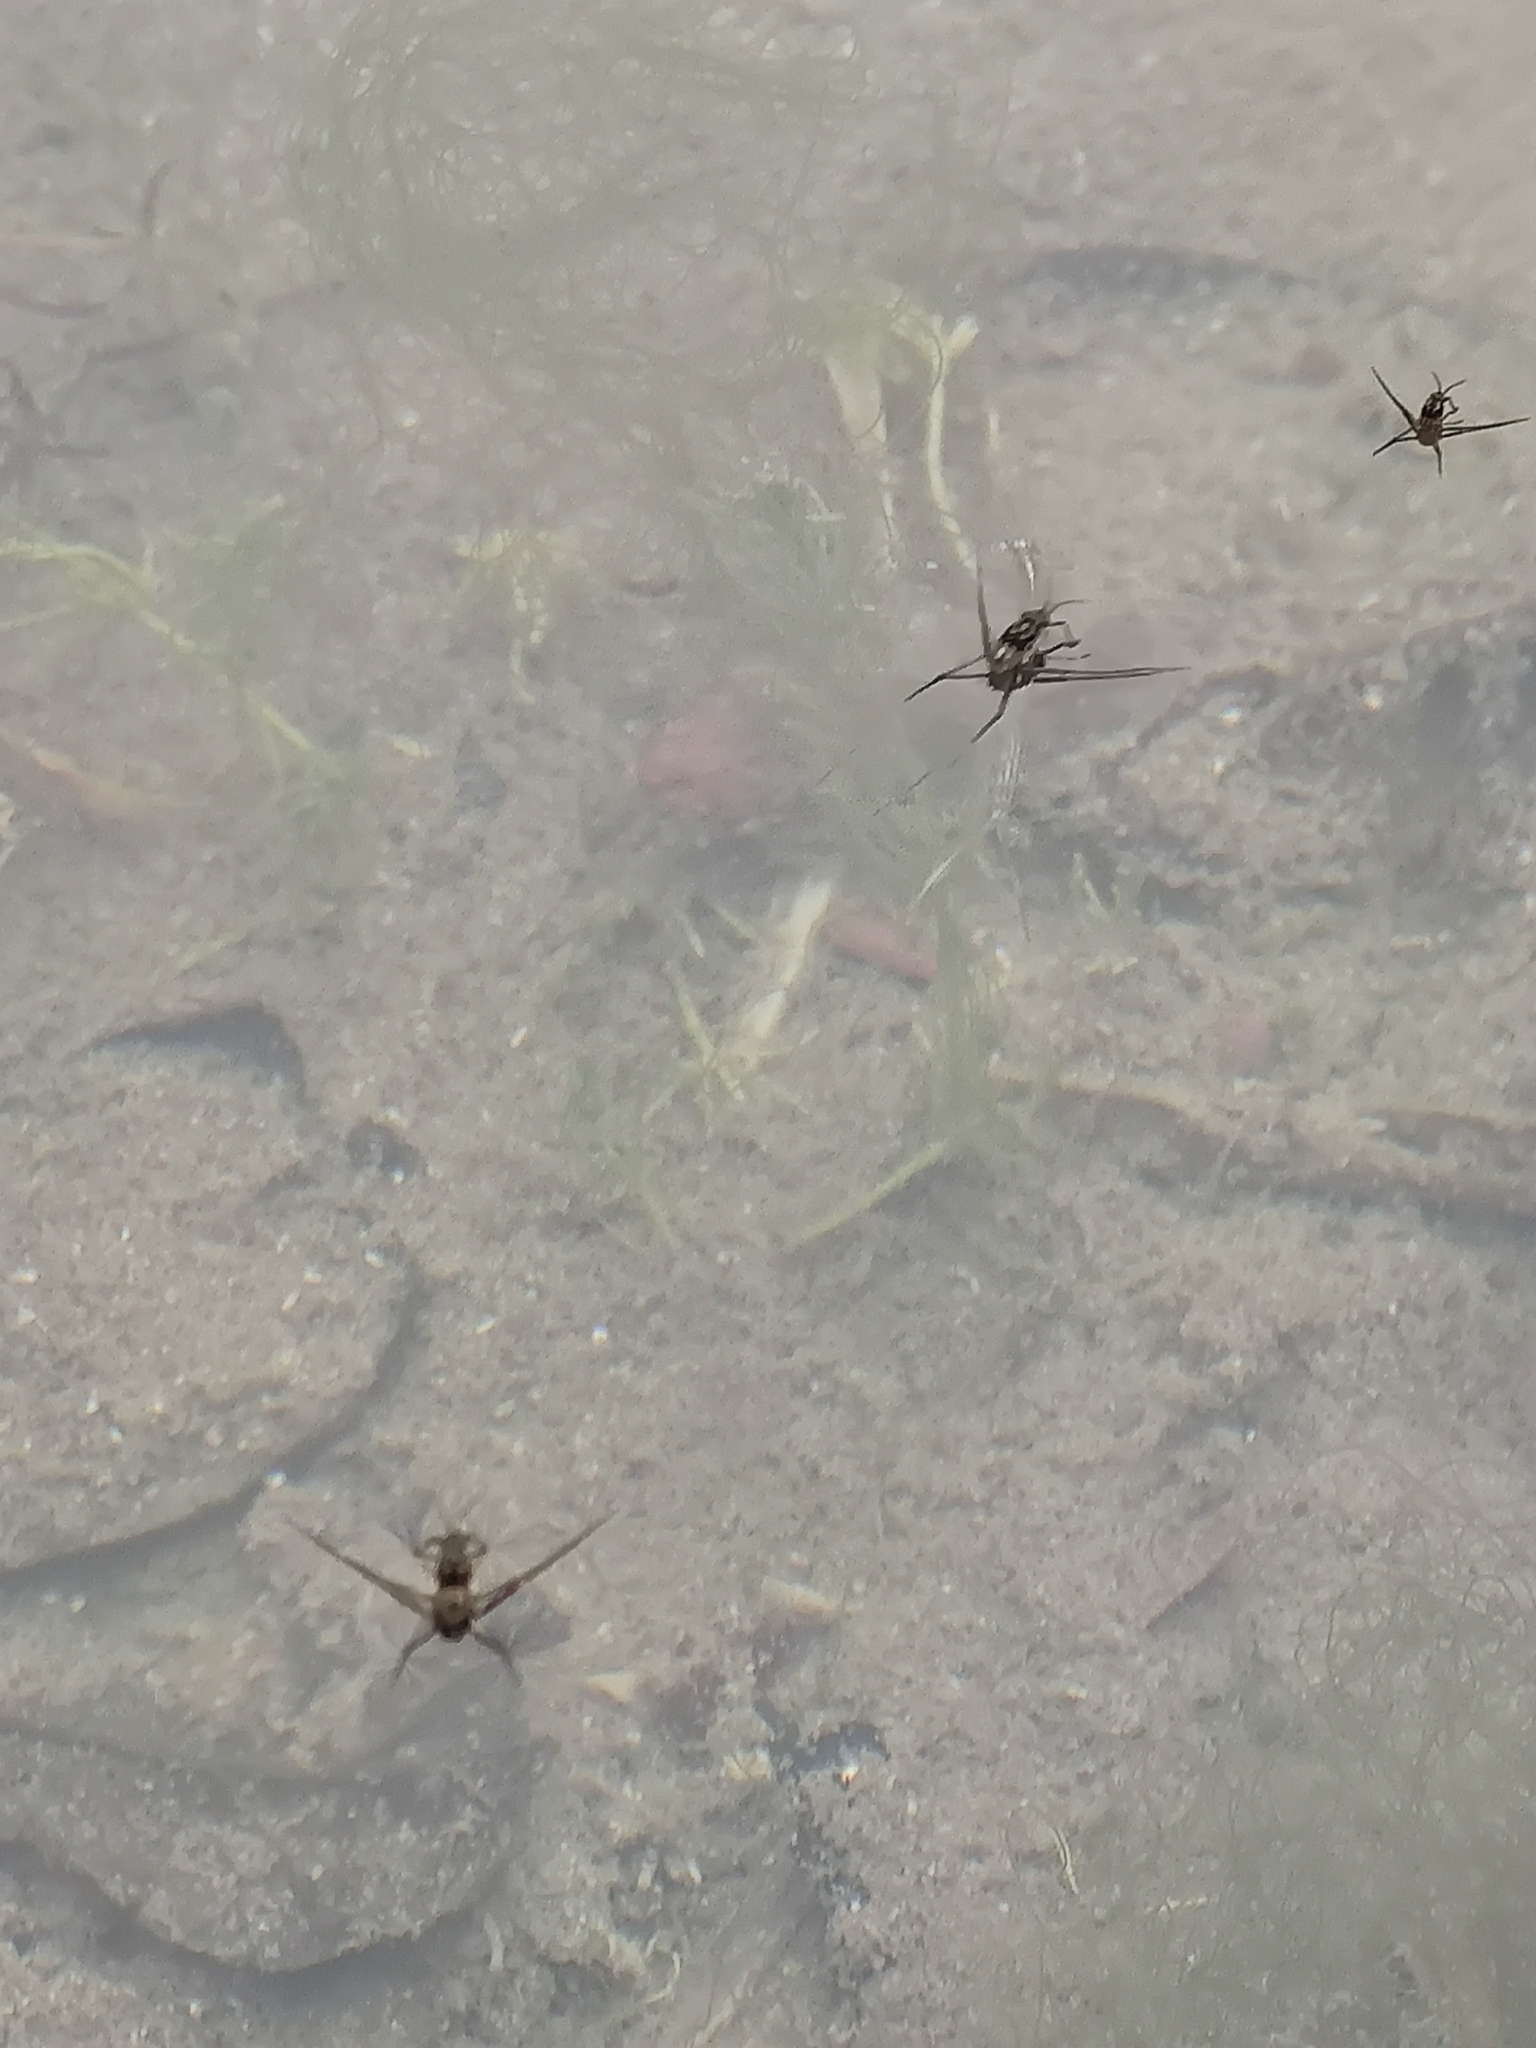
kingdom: Animalia
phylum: Arthropoda
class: Insecta
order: Hemiptera
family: Gerridae
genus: Trepobates
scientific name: Trepobates
